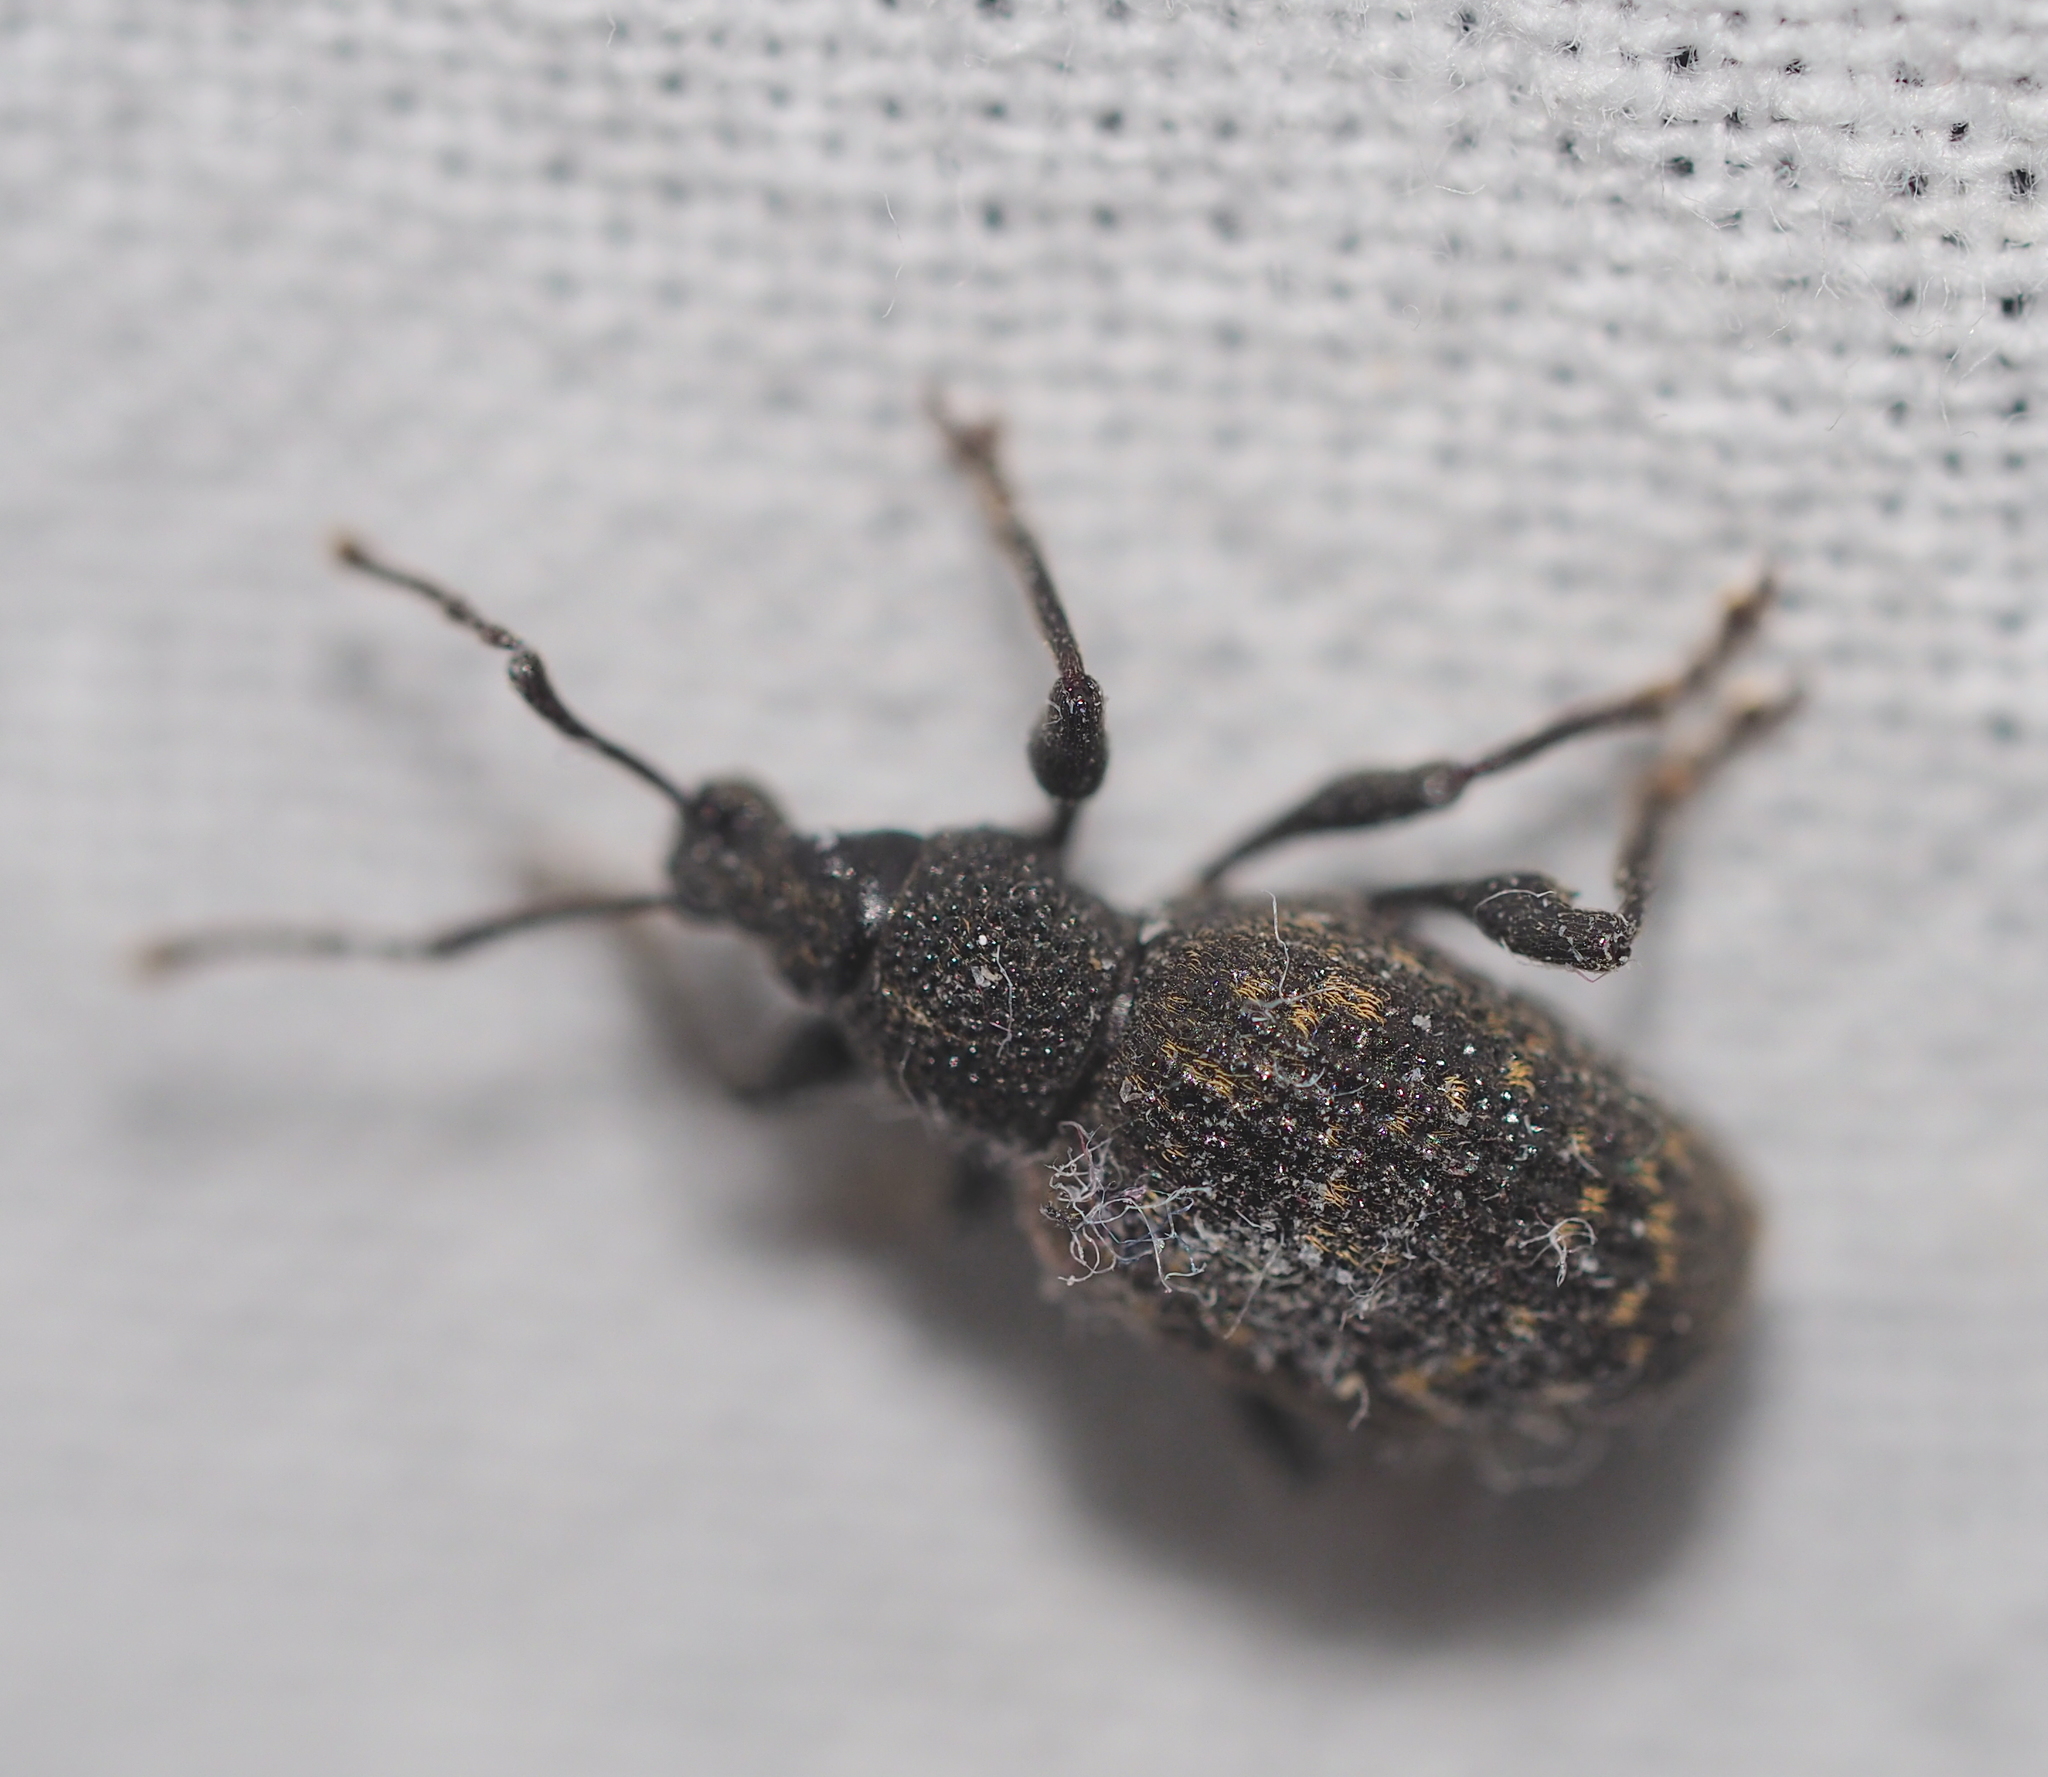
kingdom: Animalia
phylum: Arthropoda
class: Insecta
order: Coleoptera
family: Curculionidae
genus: Otiorhynchus
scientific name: Otiorhynchus sulcatus
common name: Black vine weevil
